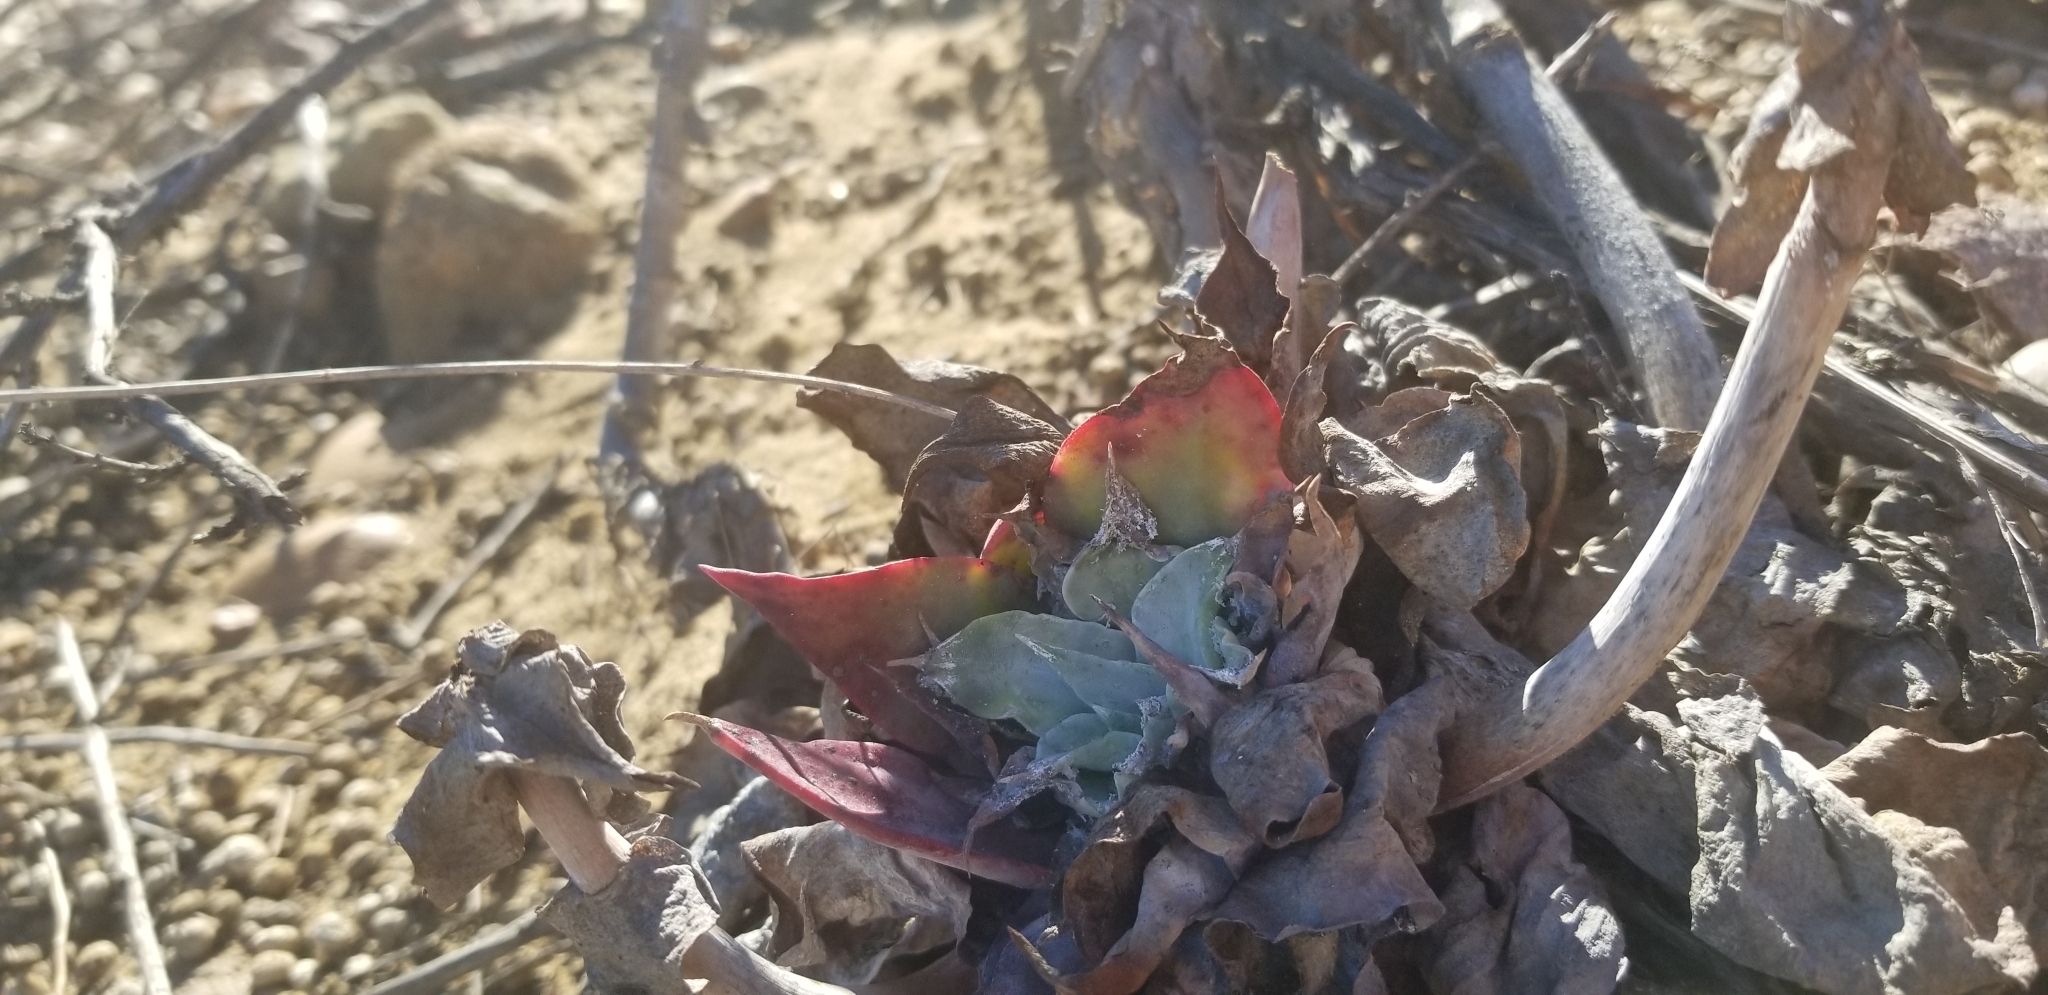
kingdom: Plantae
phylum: Tracheophyta
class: Magnoliopsida
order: Saxifragales
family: Crassulaceae
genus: Dudleya
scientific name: Dudleya pulverulenta
